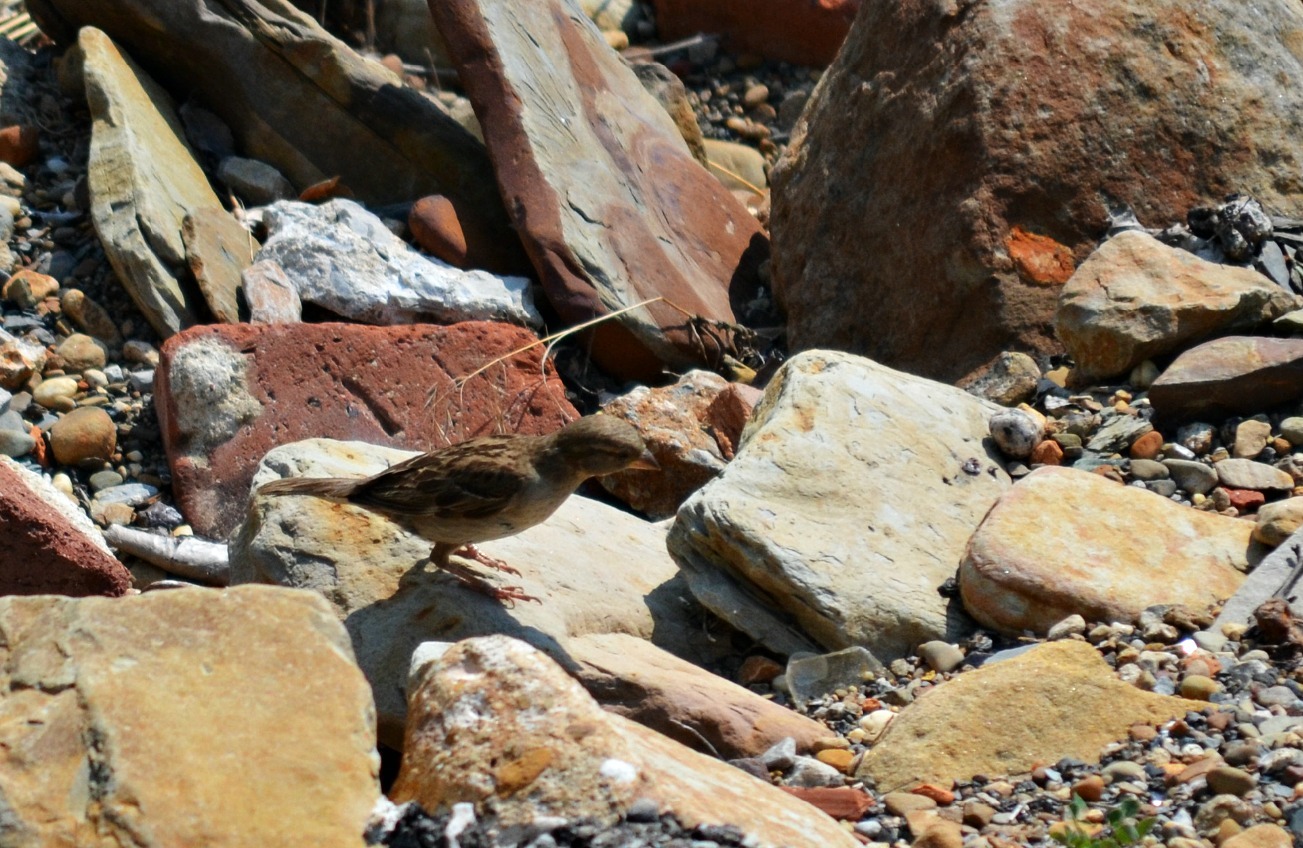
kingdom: Animalia
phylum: Chordata
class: Aves
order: Passeriformes
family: Passeridae
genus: Passer
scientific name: Passer domesticus
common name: House sparrow
